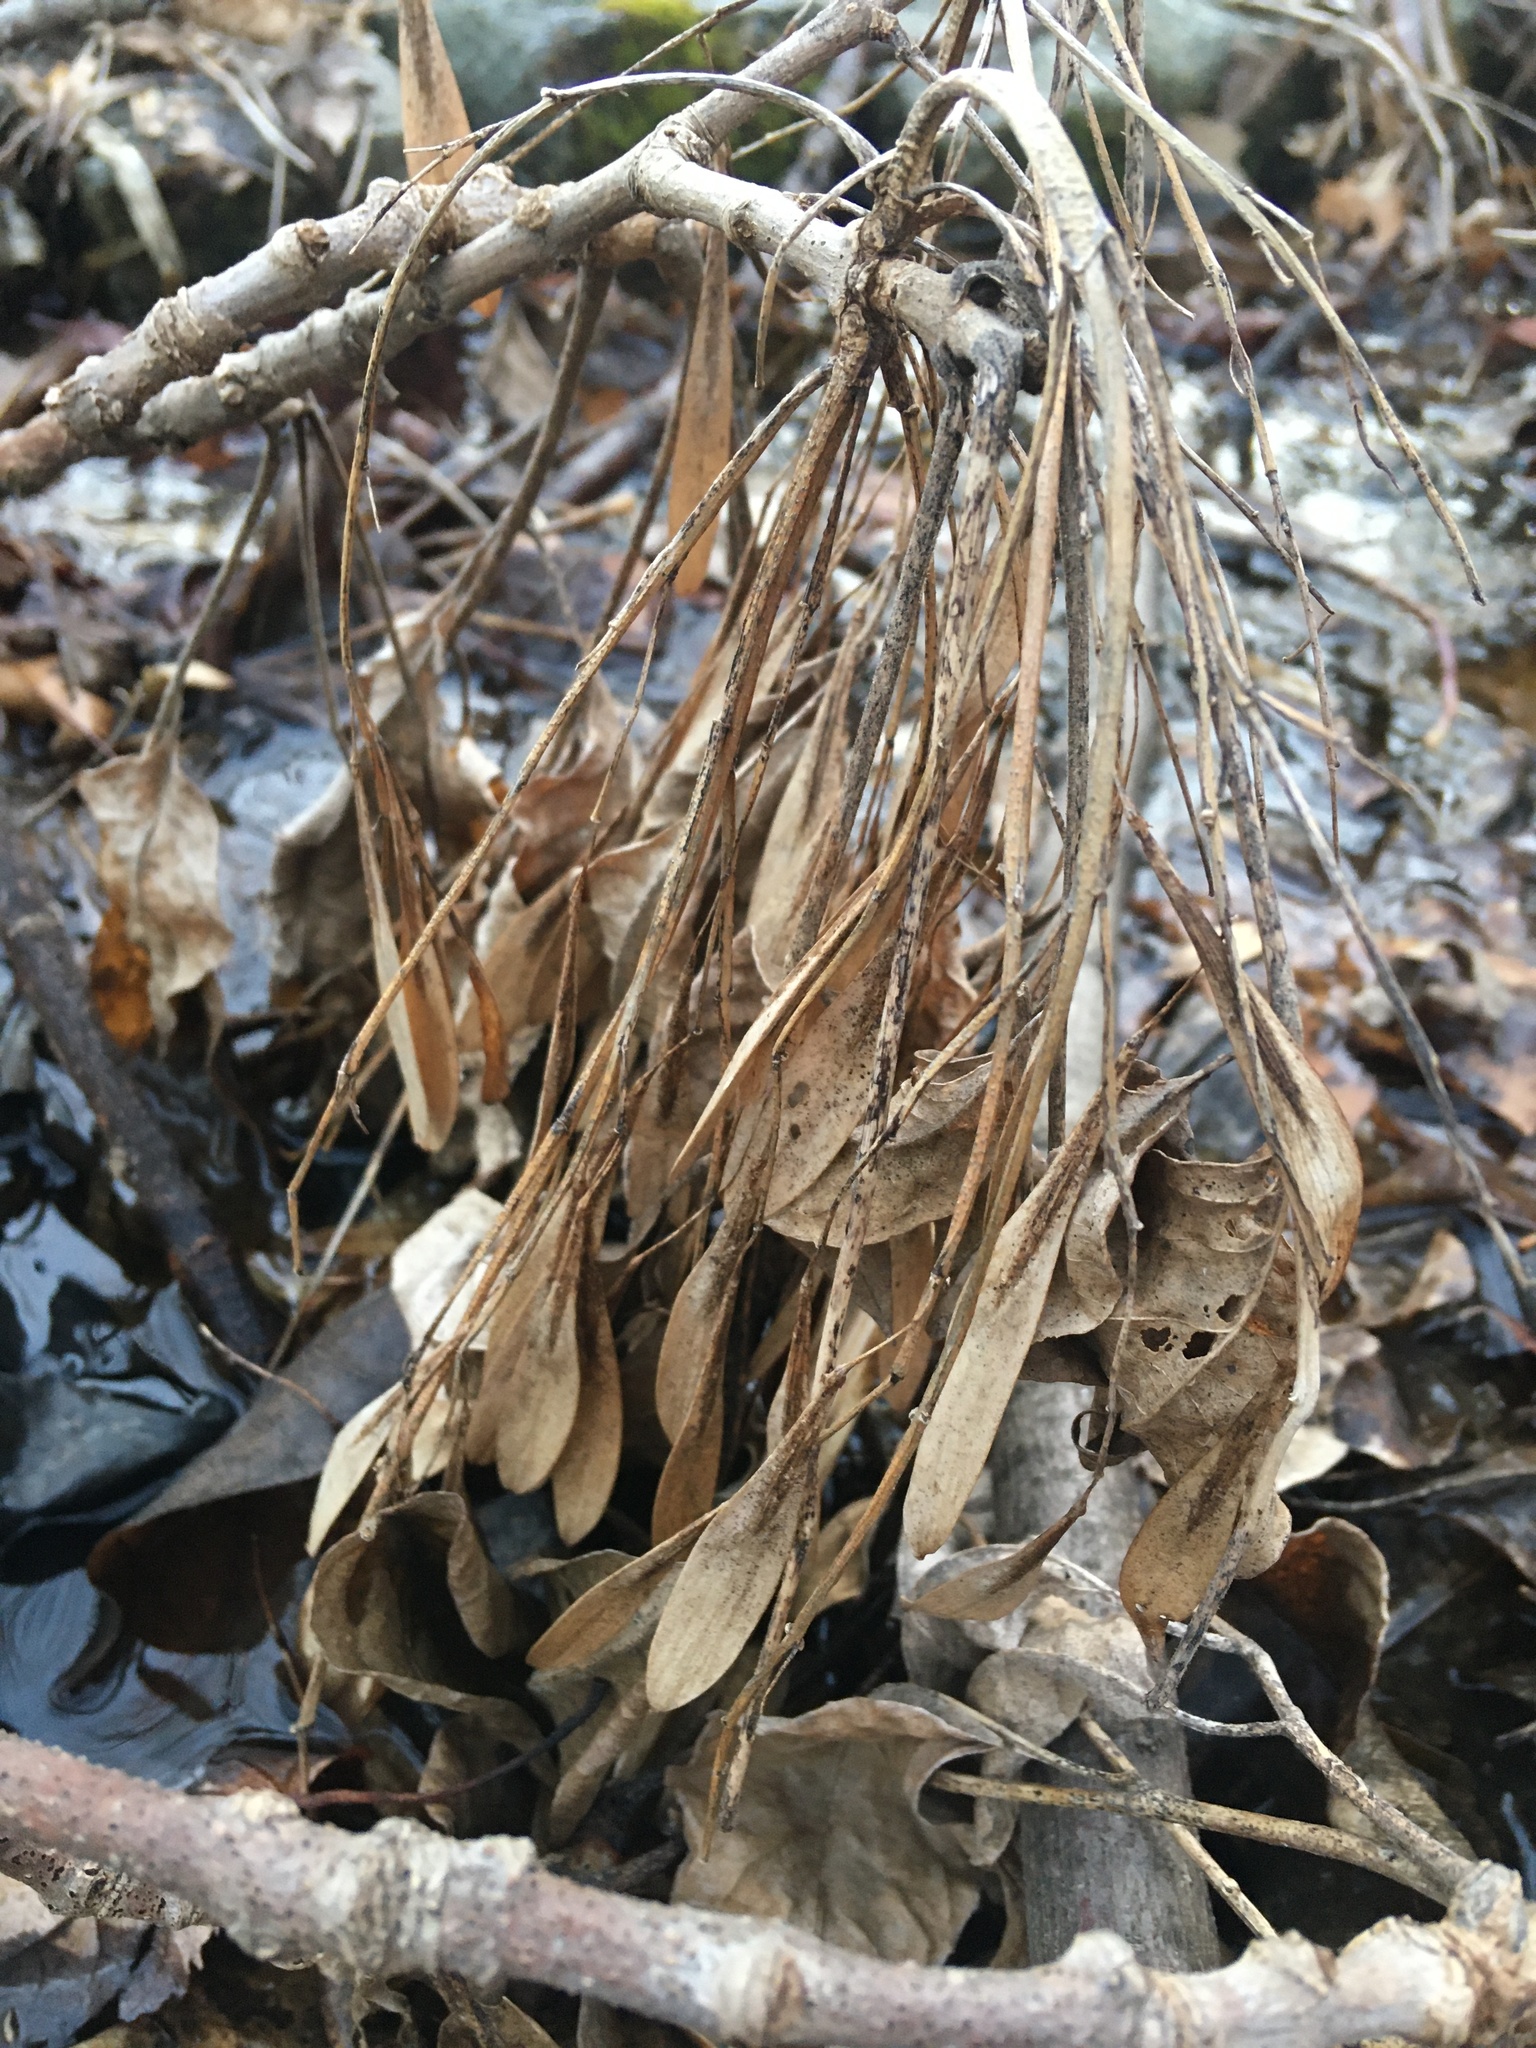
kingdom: Plantae
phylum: Tracheophyta
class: Magnoliopsida
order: Lamiales
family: Oleaceae
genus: Fraxinus
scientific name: Fraxinus profunda
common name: Pumpkin ash
